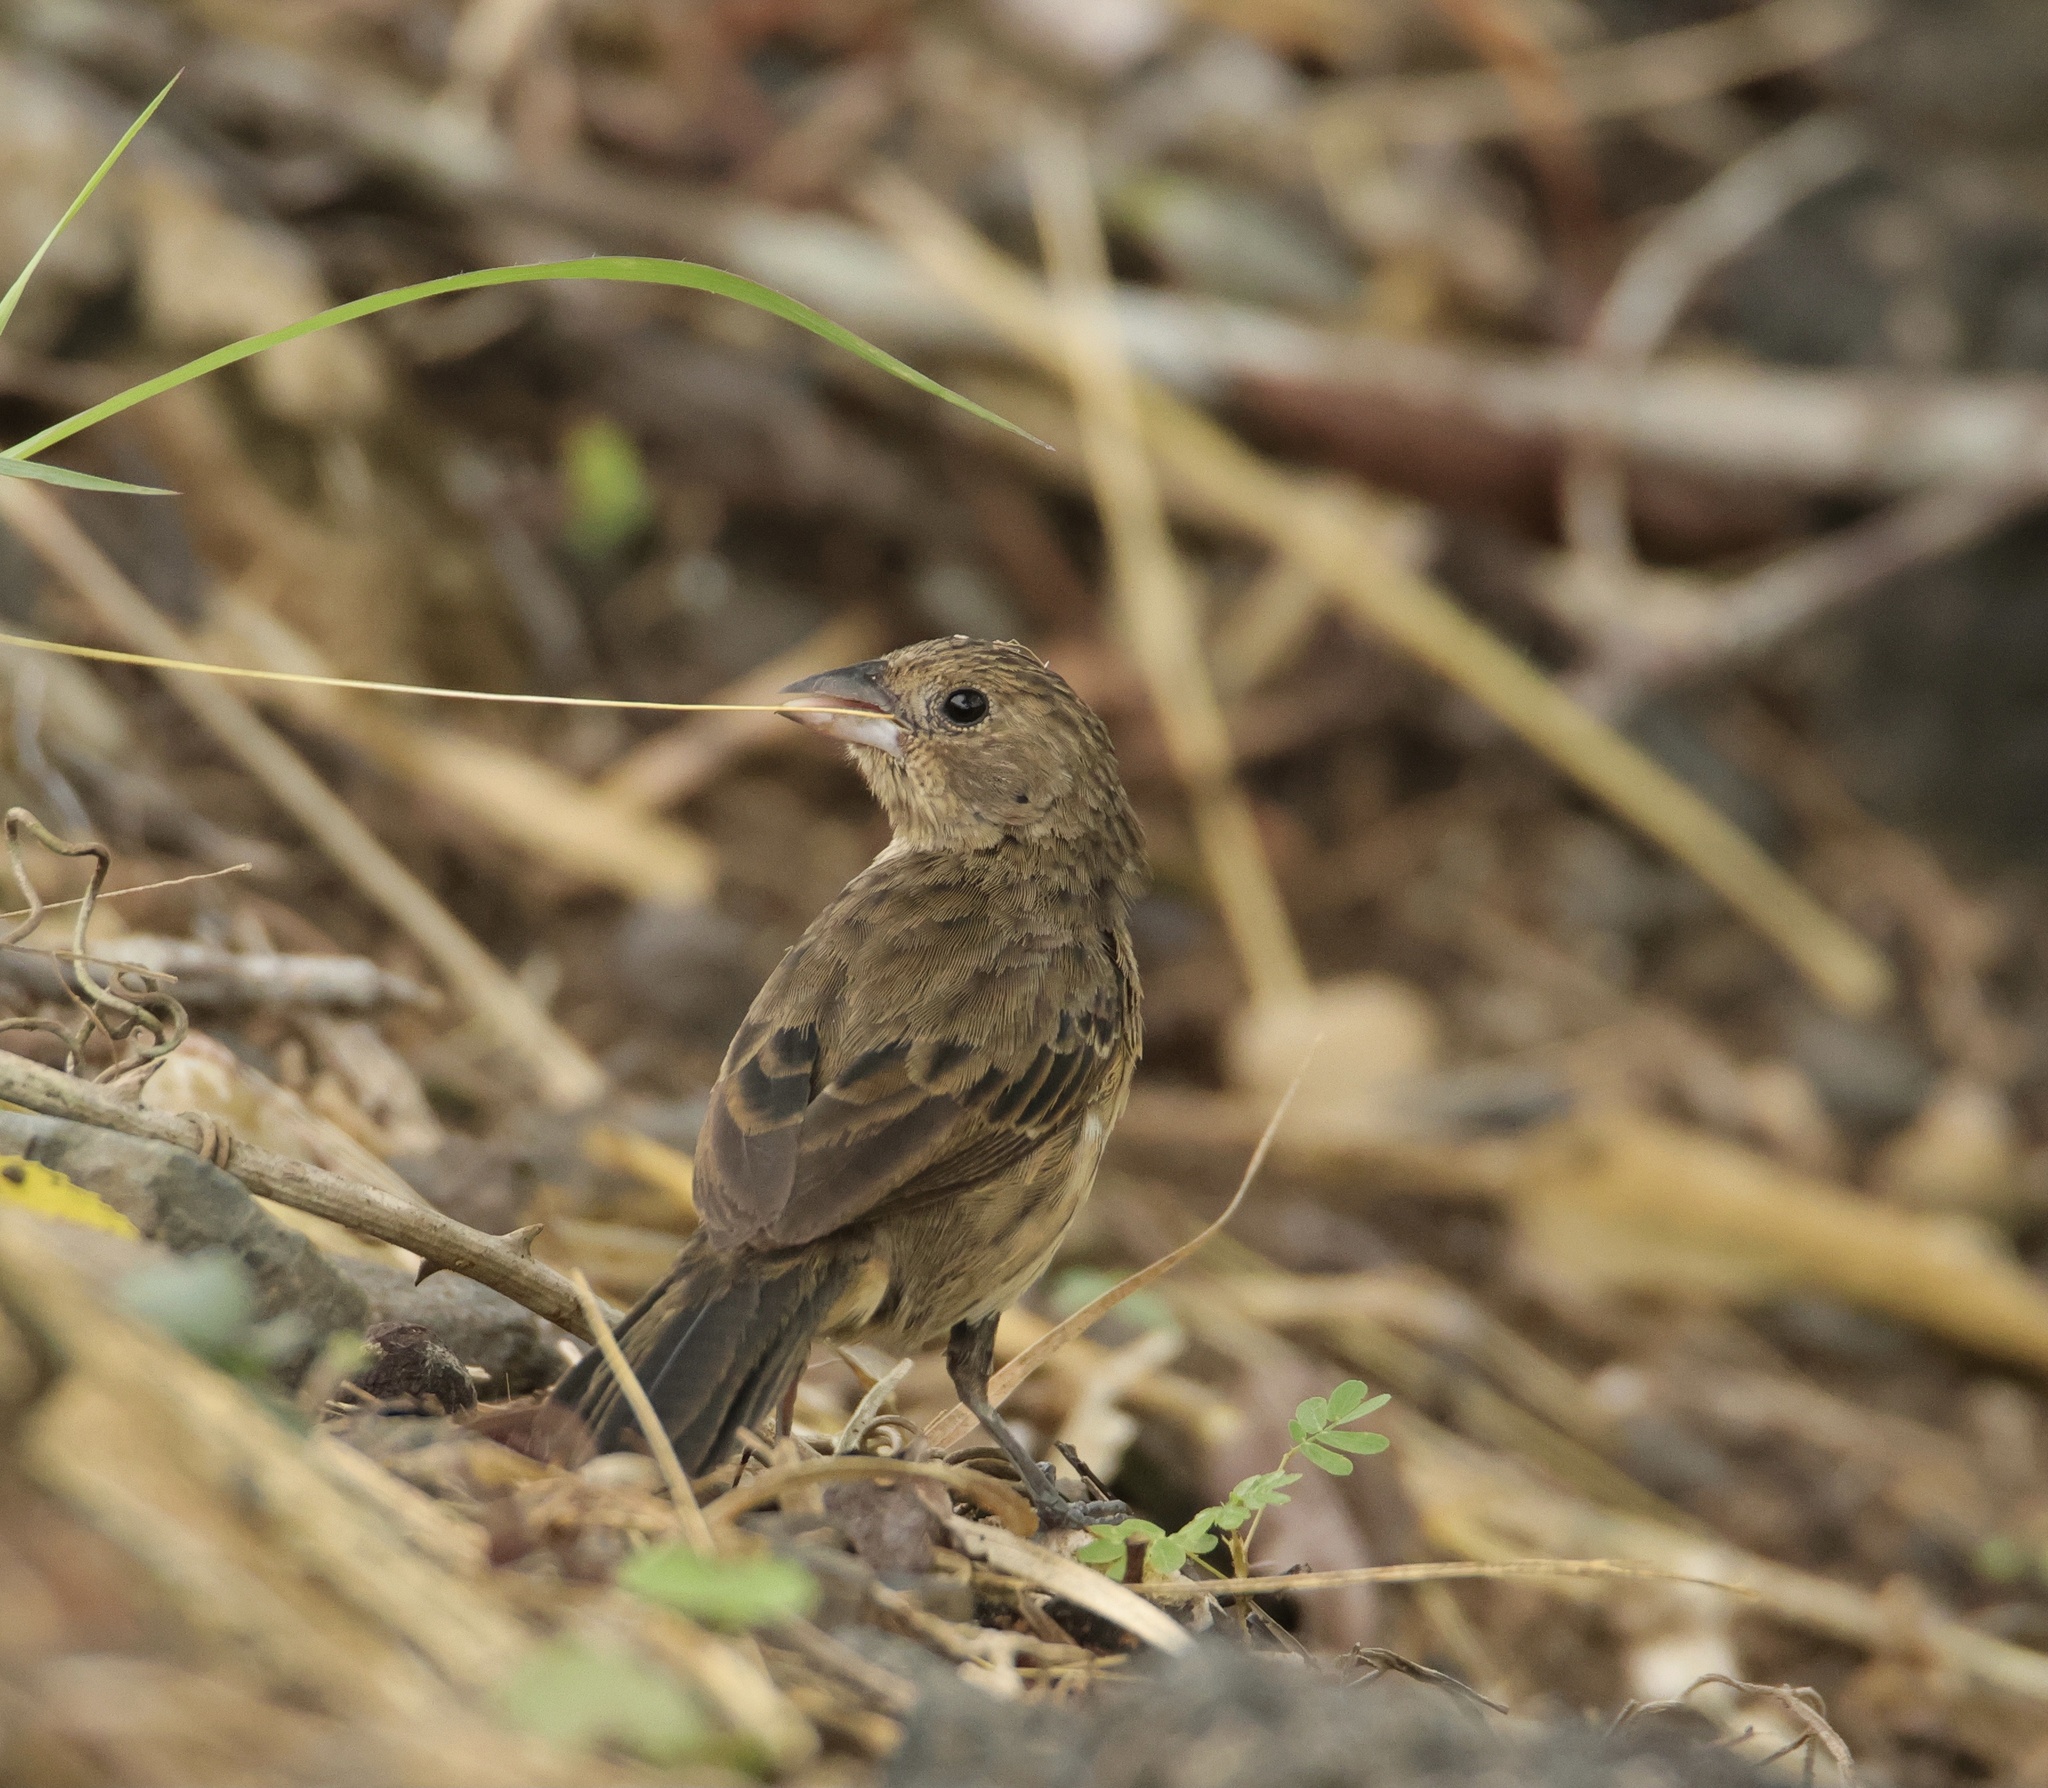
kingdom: Animalia
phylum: Chordata
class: Aves
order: Passeriformes
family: Thraupidae
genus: Volatinia
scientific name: Volatinia jacarina
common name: Blue-black grassquit
